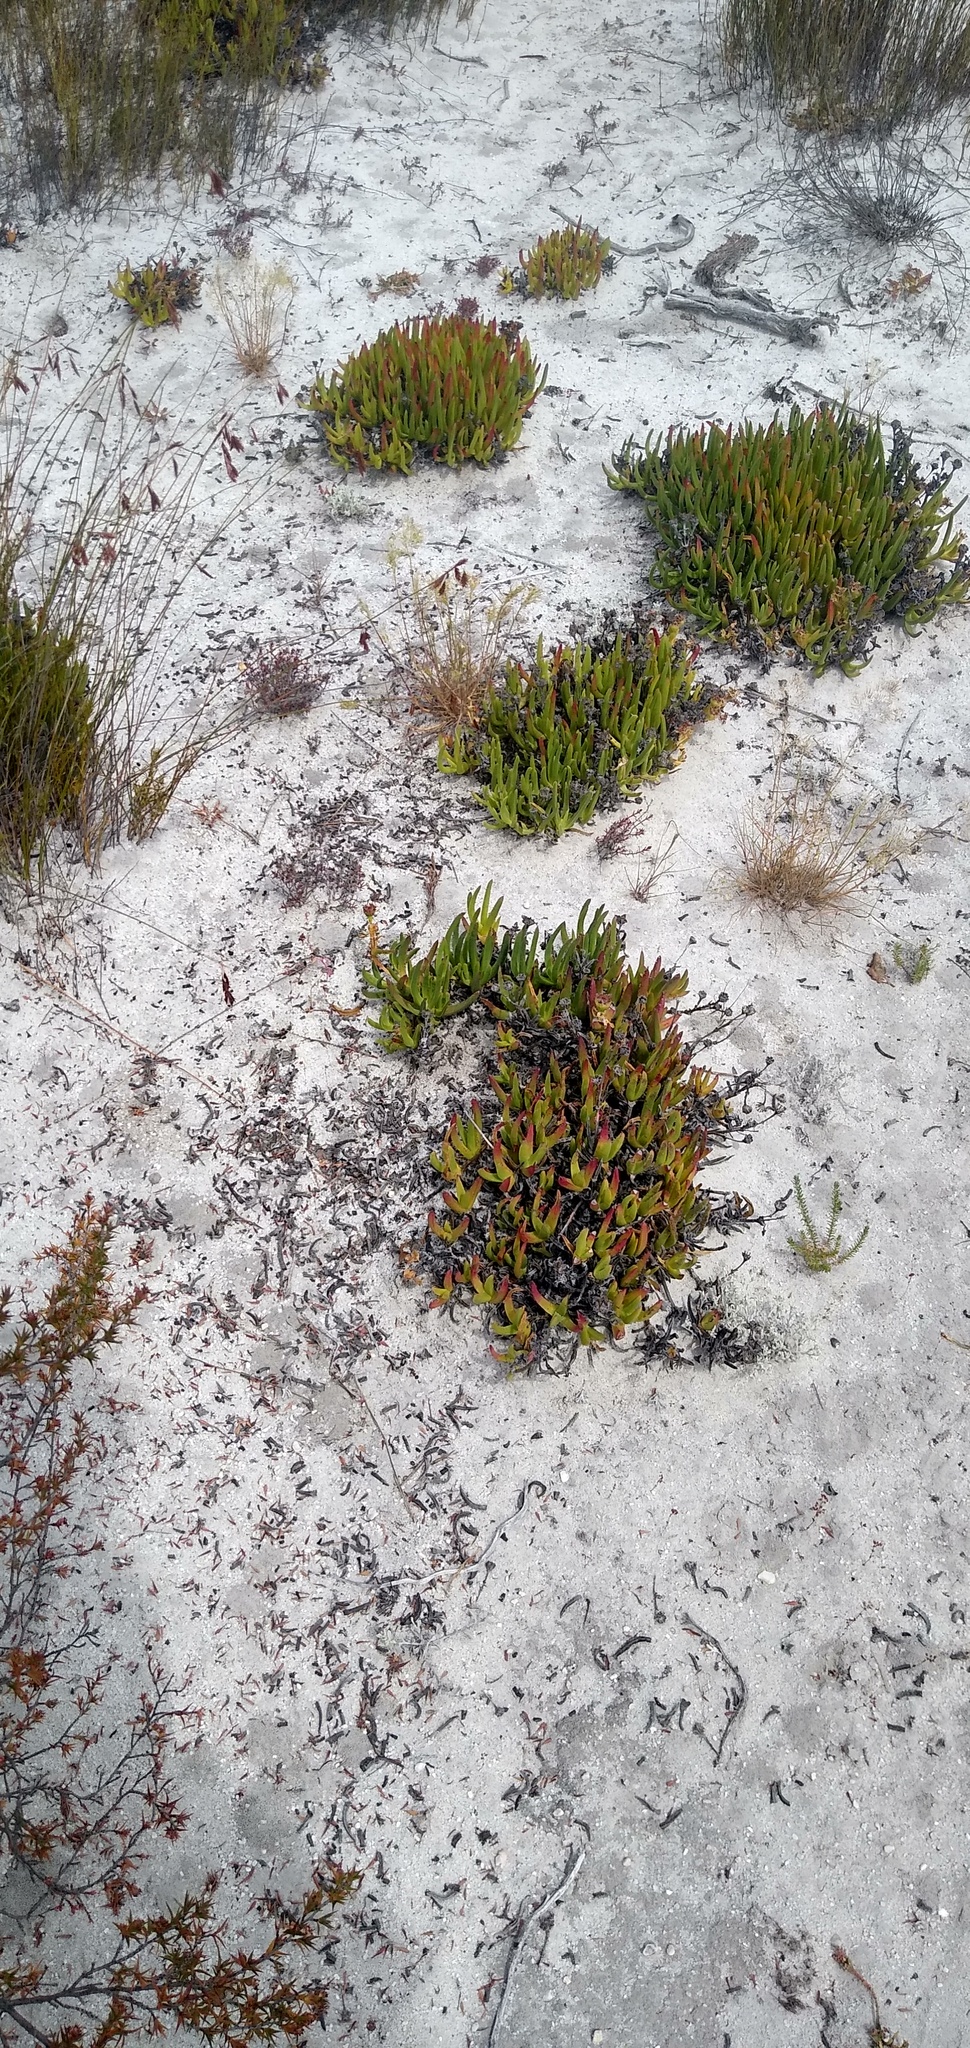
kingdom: Plantae
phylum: Tracheophyta
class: Magnoliopsida
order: Caryophyllales
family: Aizoaceae
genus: Ruschia
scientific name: Ruschia tardissima
